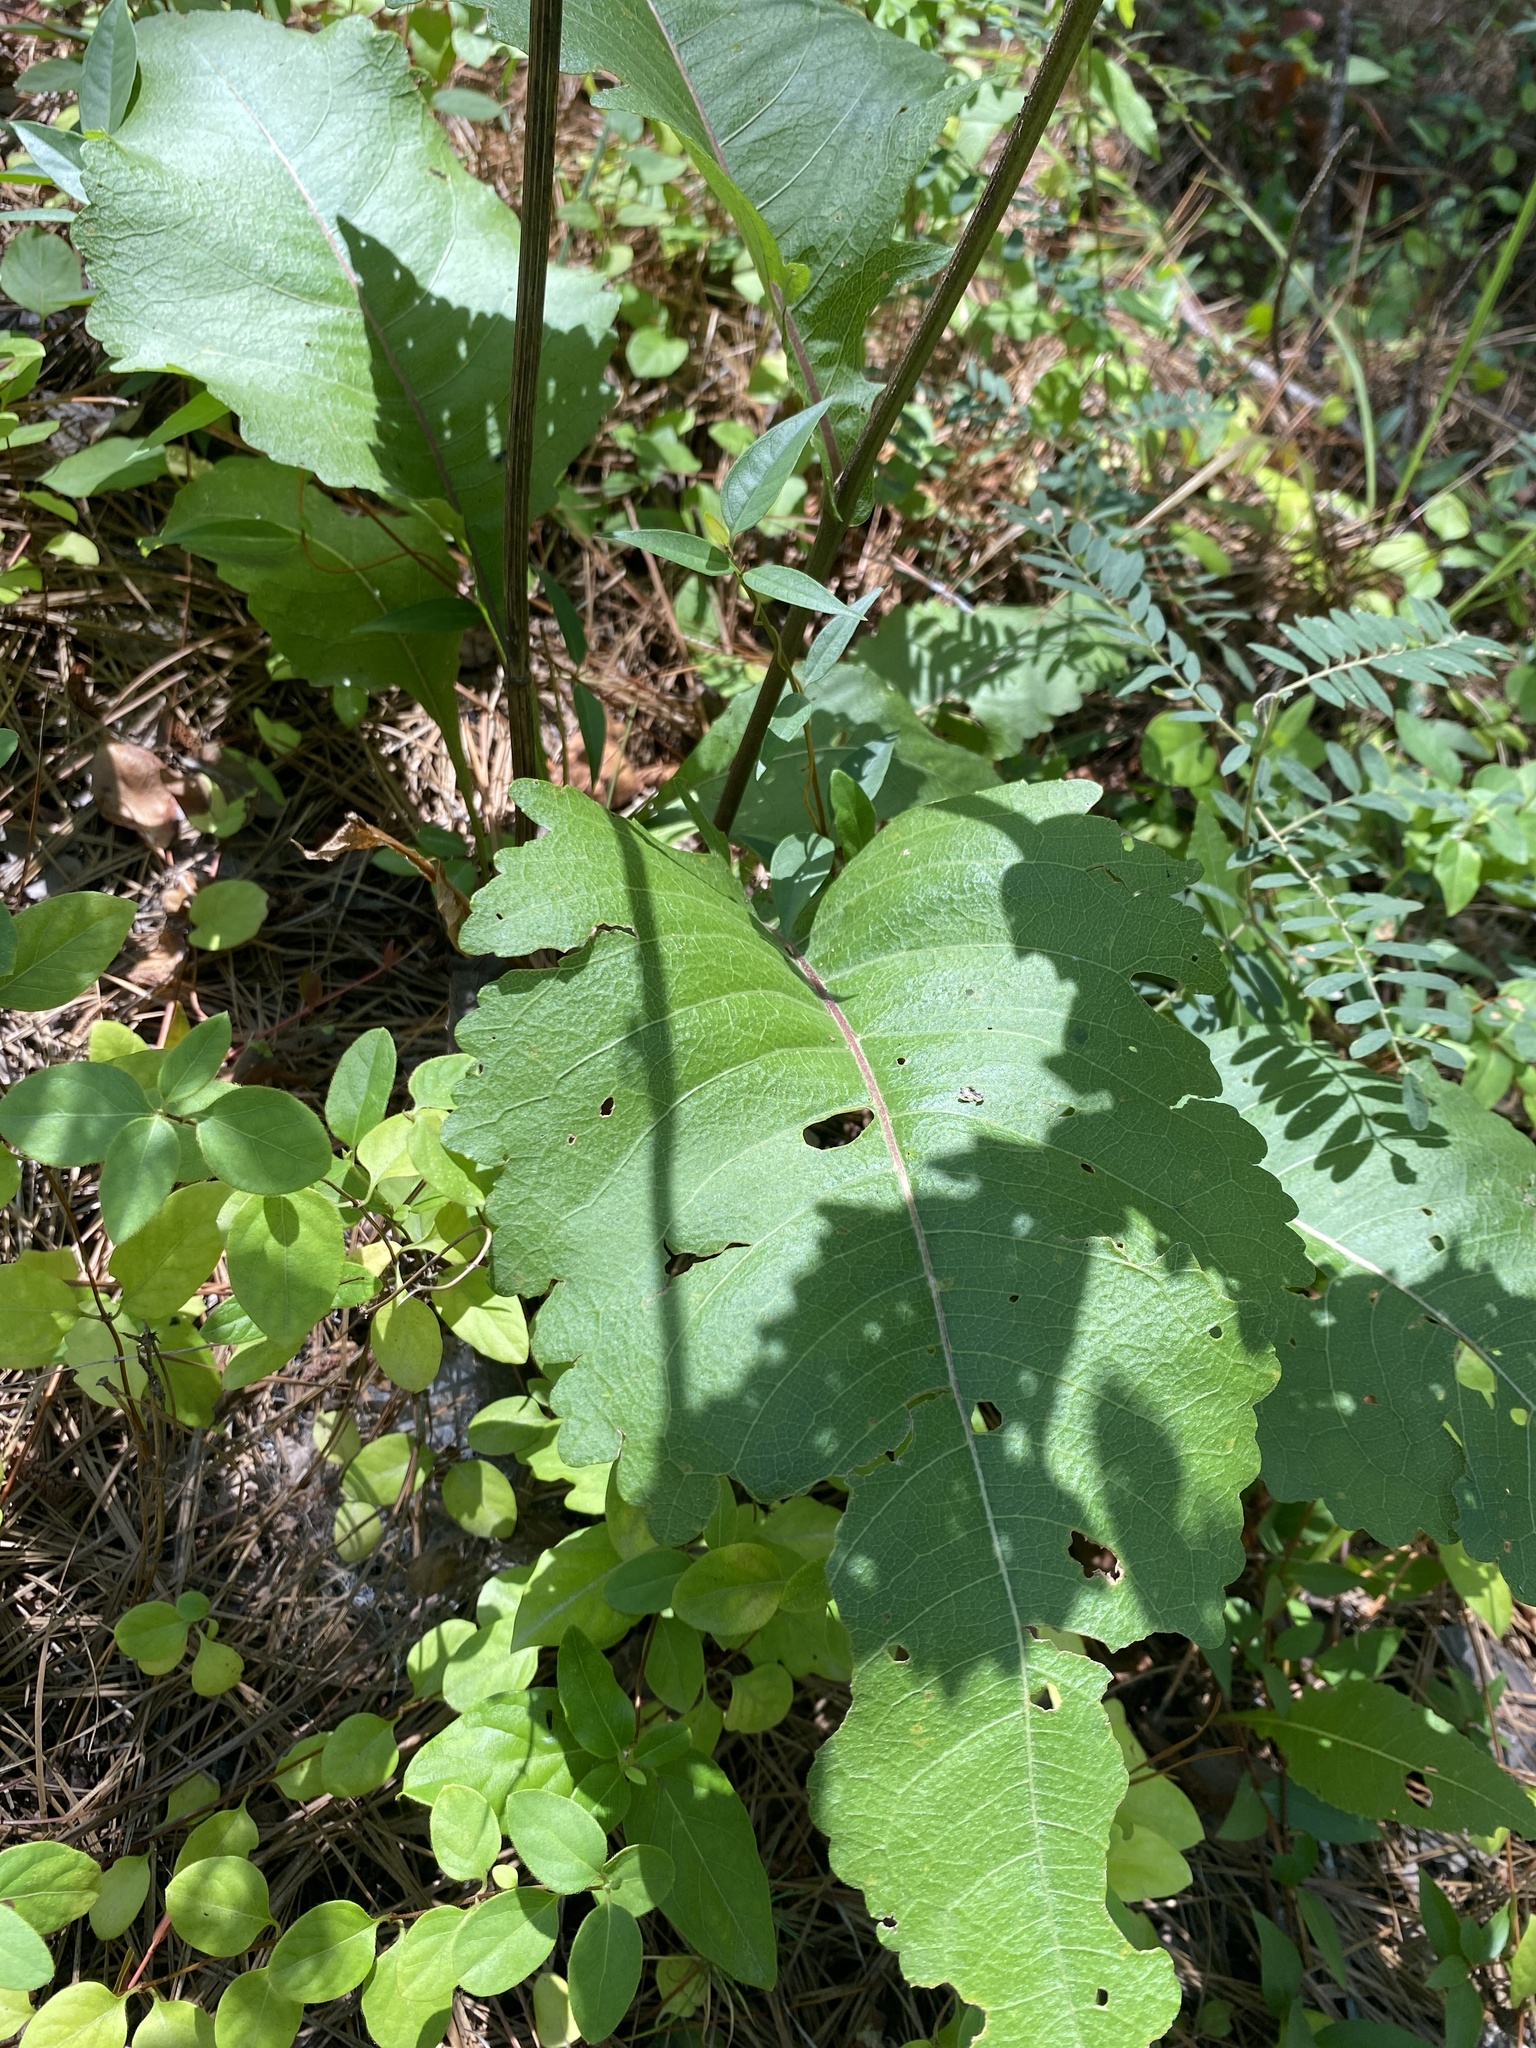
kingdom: Plantae
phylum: Tracheophyta
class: Magnoliopsida
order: Asterales
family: Asteraceae
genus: Parthenium
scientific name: Parthenium integrifolium
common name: American feverfew
